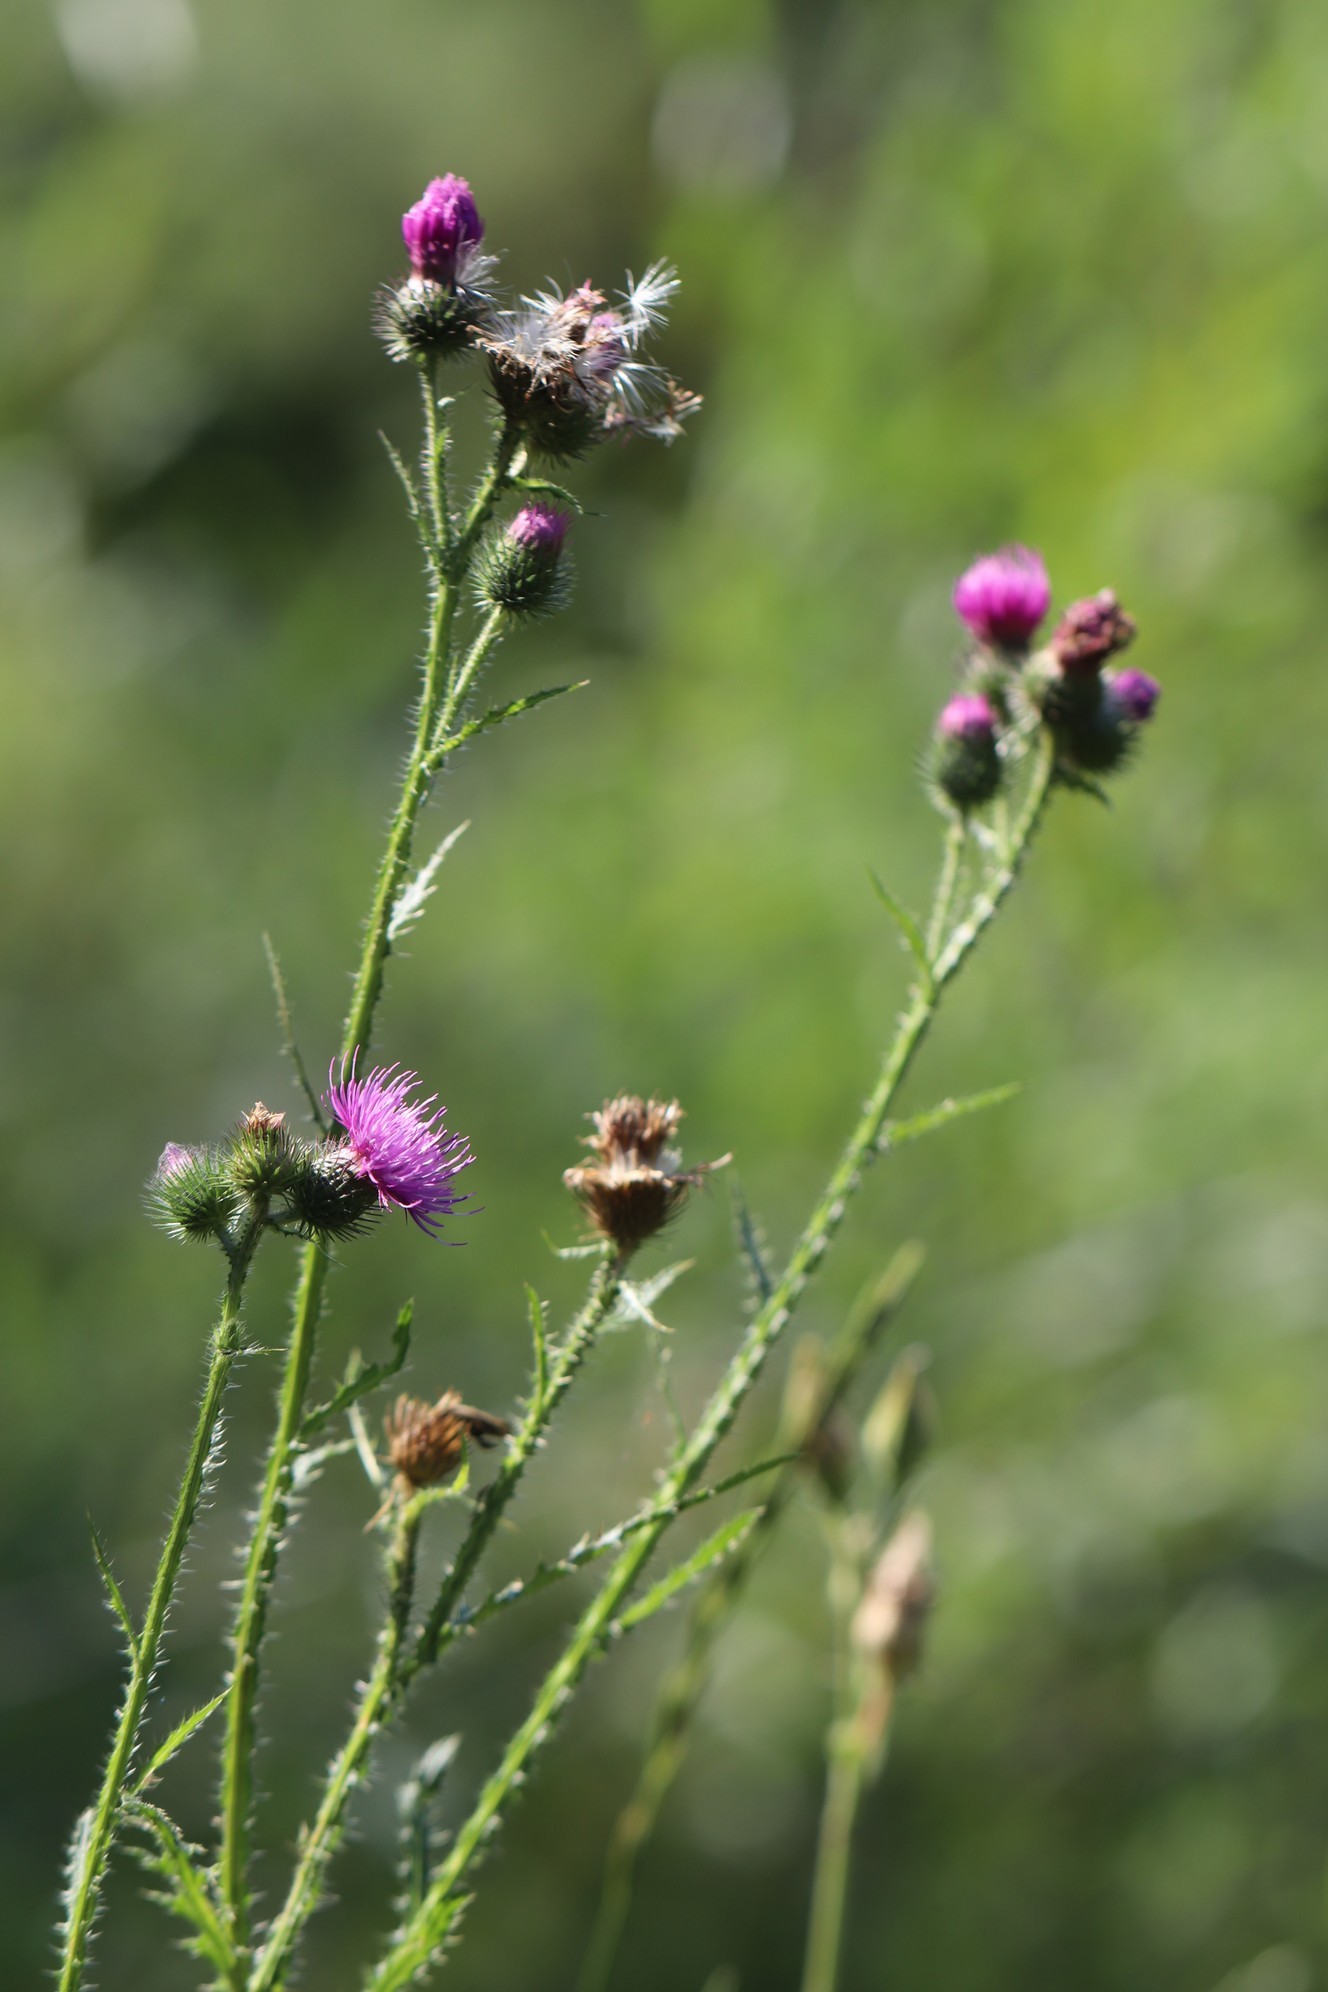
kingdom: Plantae
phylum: Tracheophyta
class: Magnoliopsida
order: Asterales
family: Asteraceae
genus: Carduus
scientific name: Carduus crispus
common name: Welted thistle
